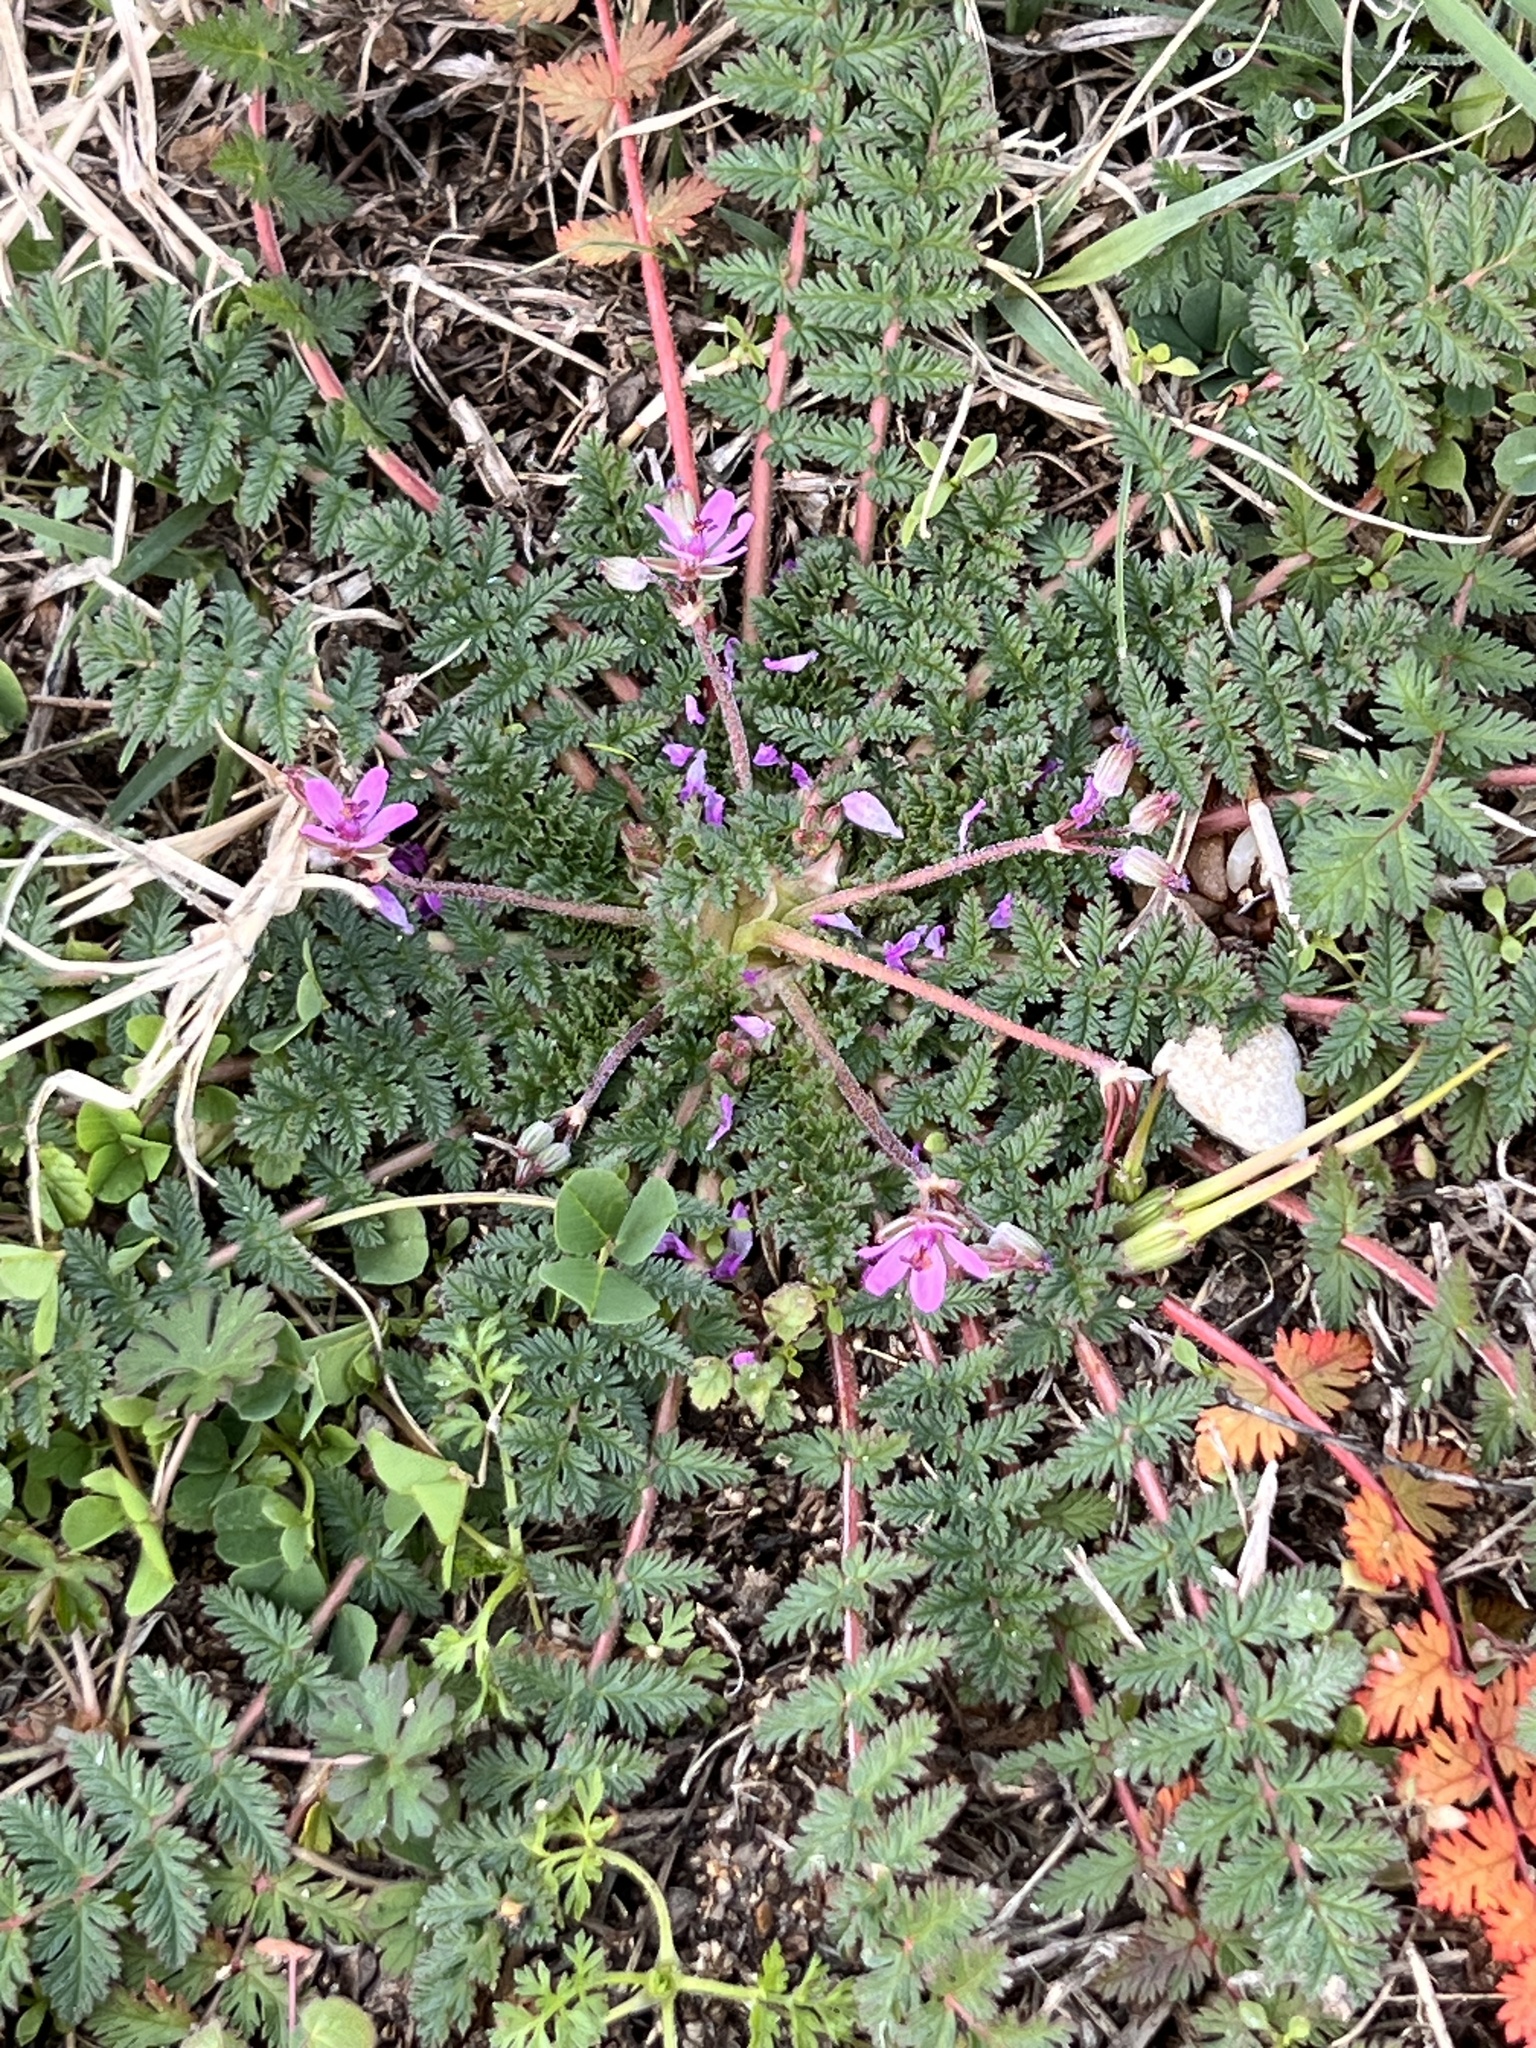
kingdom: Plantae
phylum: Tracheophyta
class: Magnoliopsida
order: Geraniales
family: Geraniaceae
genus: Erodium
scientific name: Erodium cicutarium
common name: Common stork's-bill
